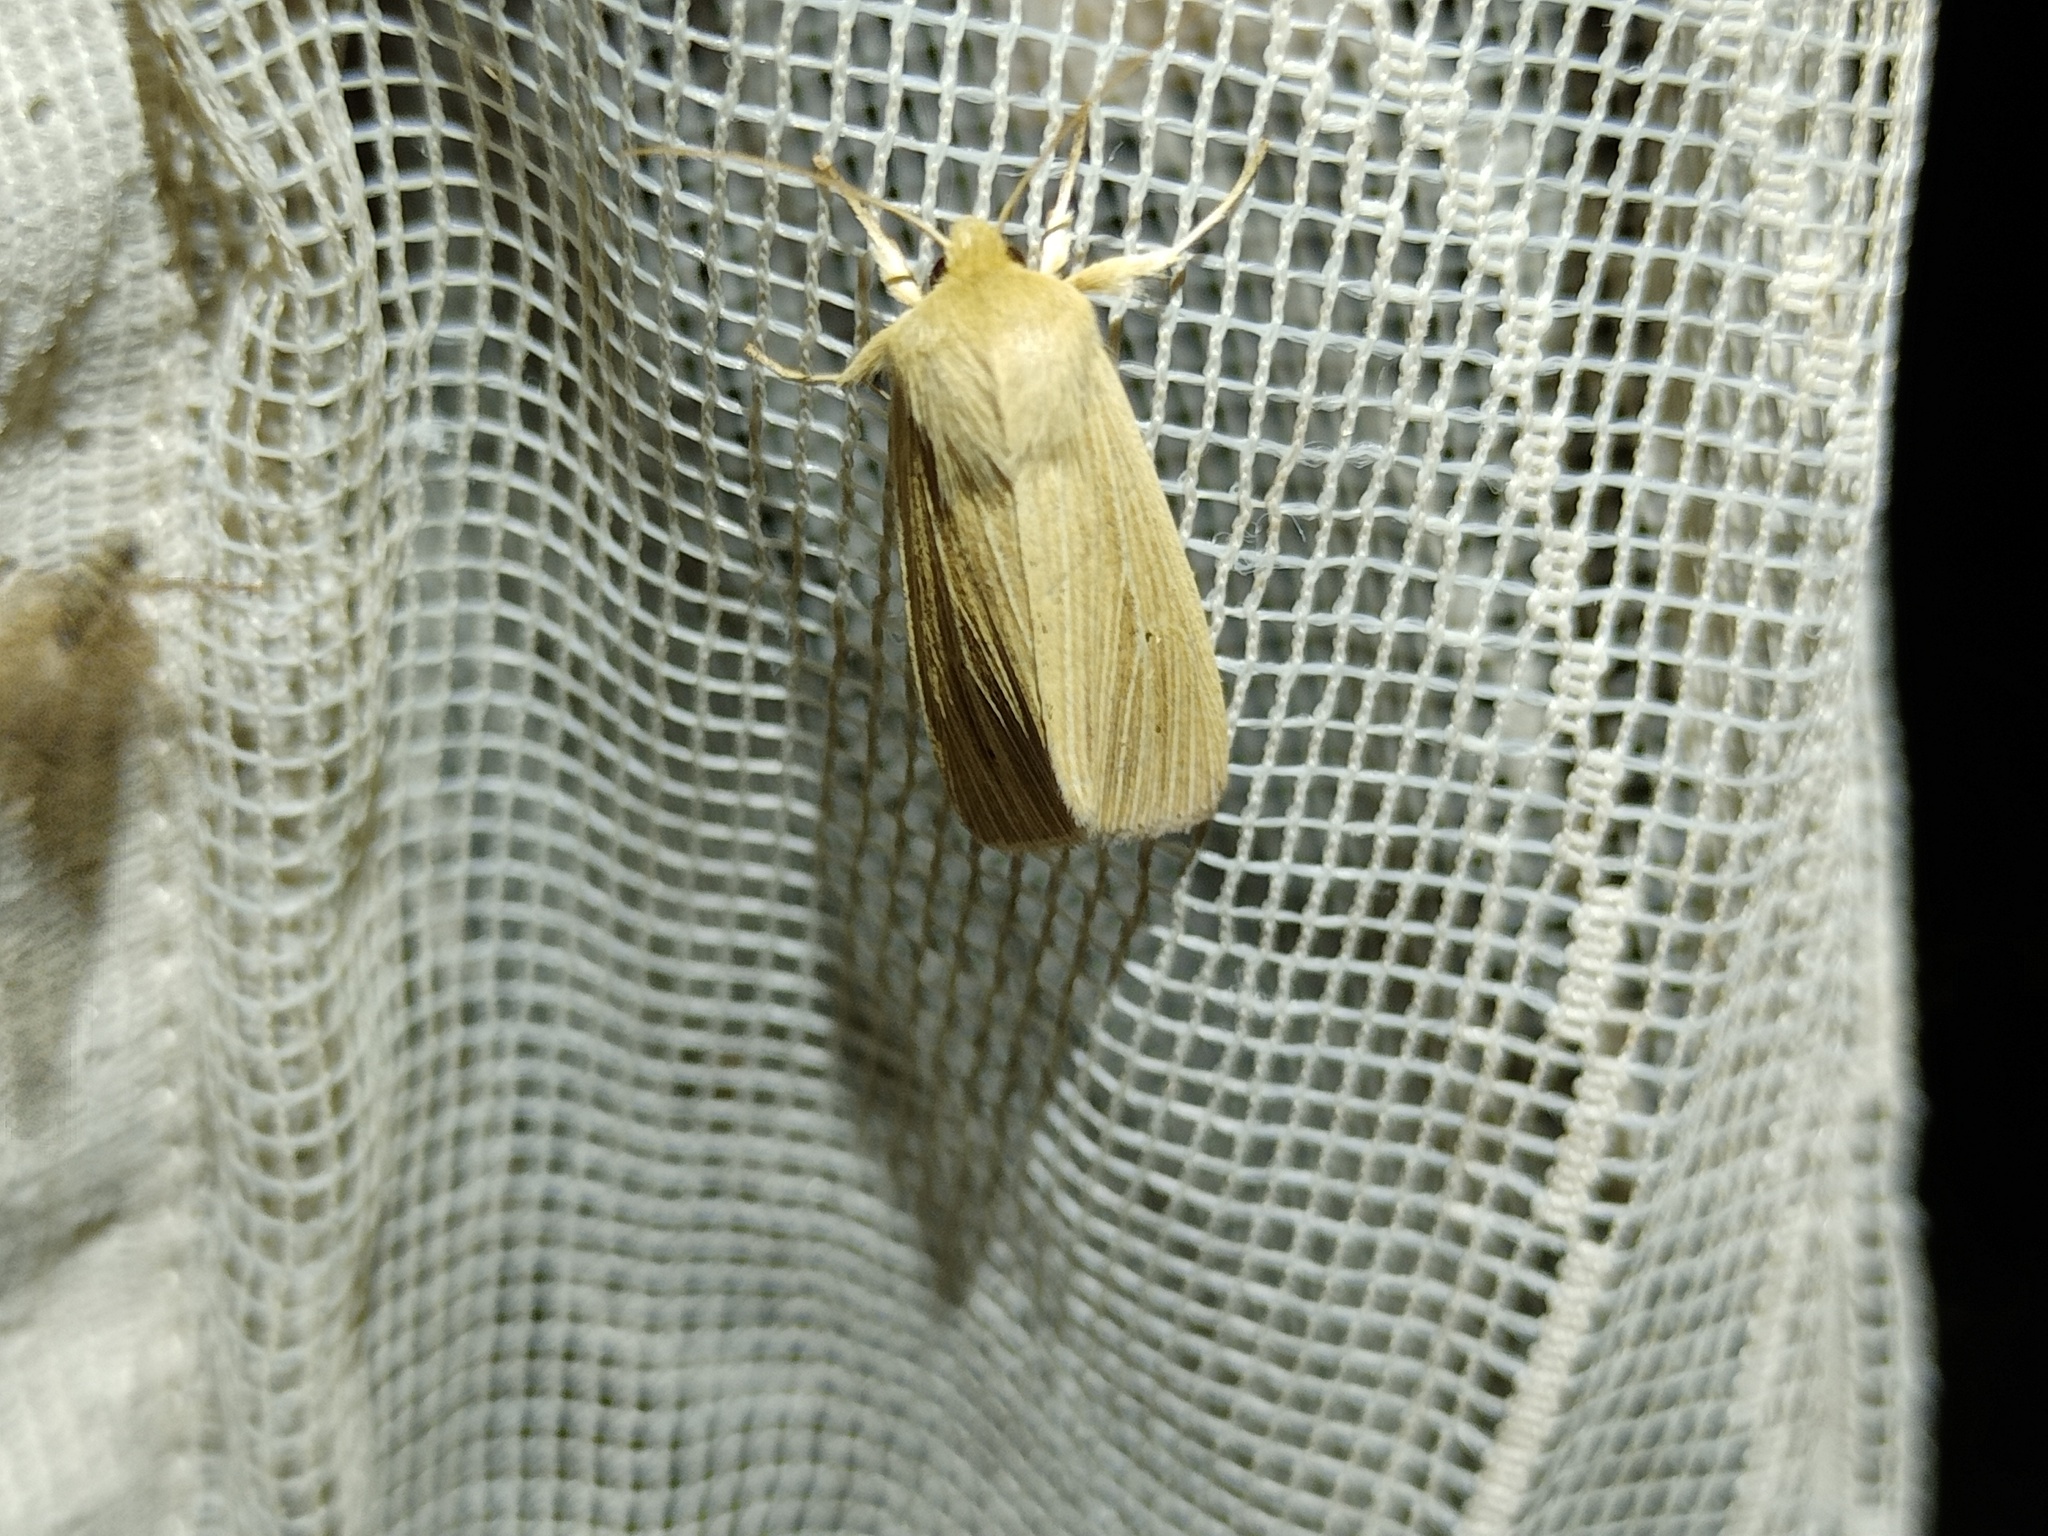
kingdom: Animalia
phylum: Arthropoda
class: Insecta
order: Lepidoptera
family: Noctuidae
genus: Mythimna
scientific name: Mythimna pallens
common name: Common wainscot
